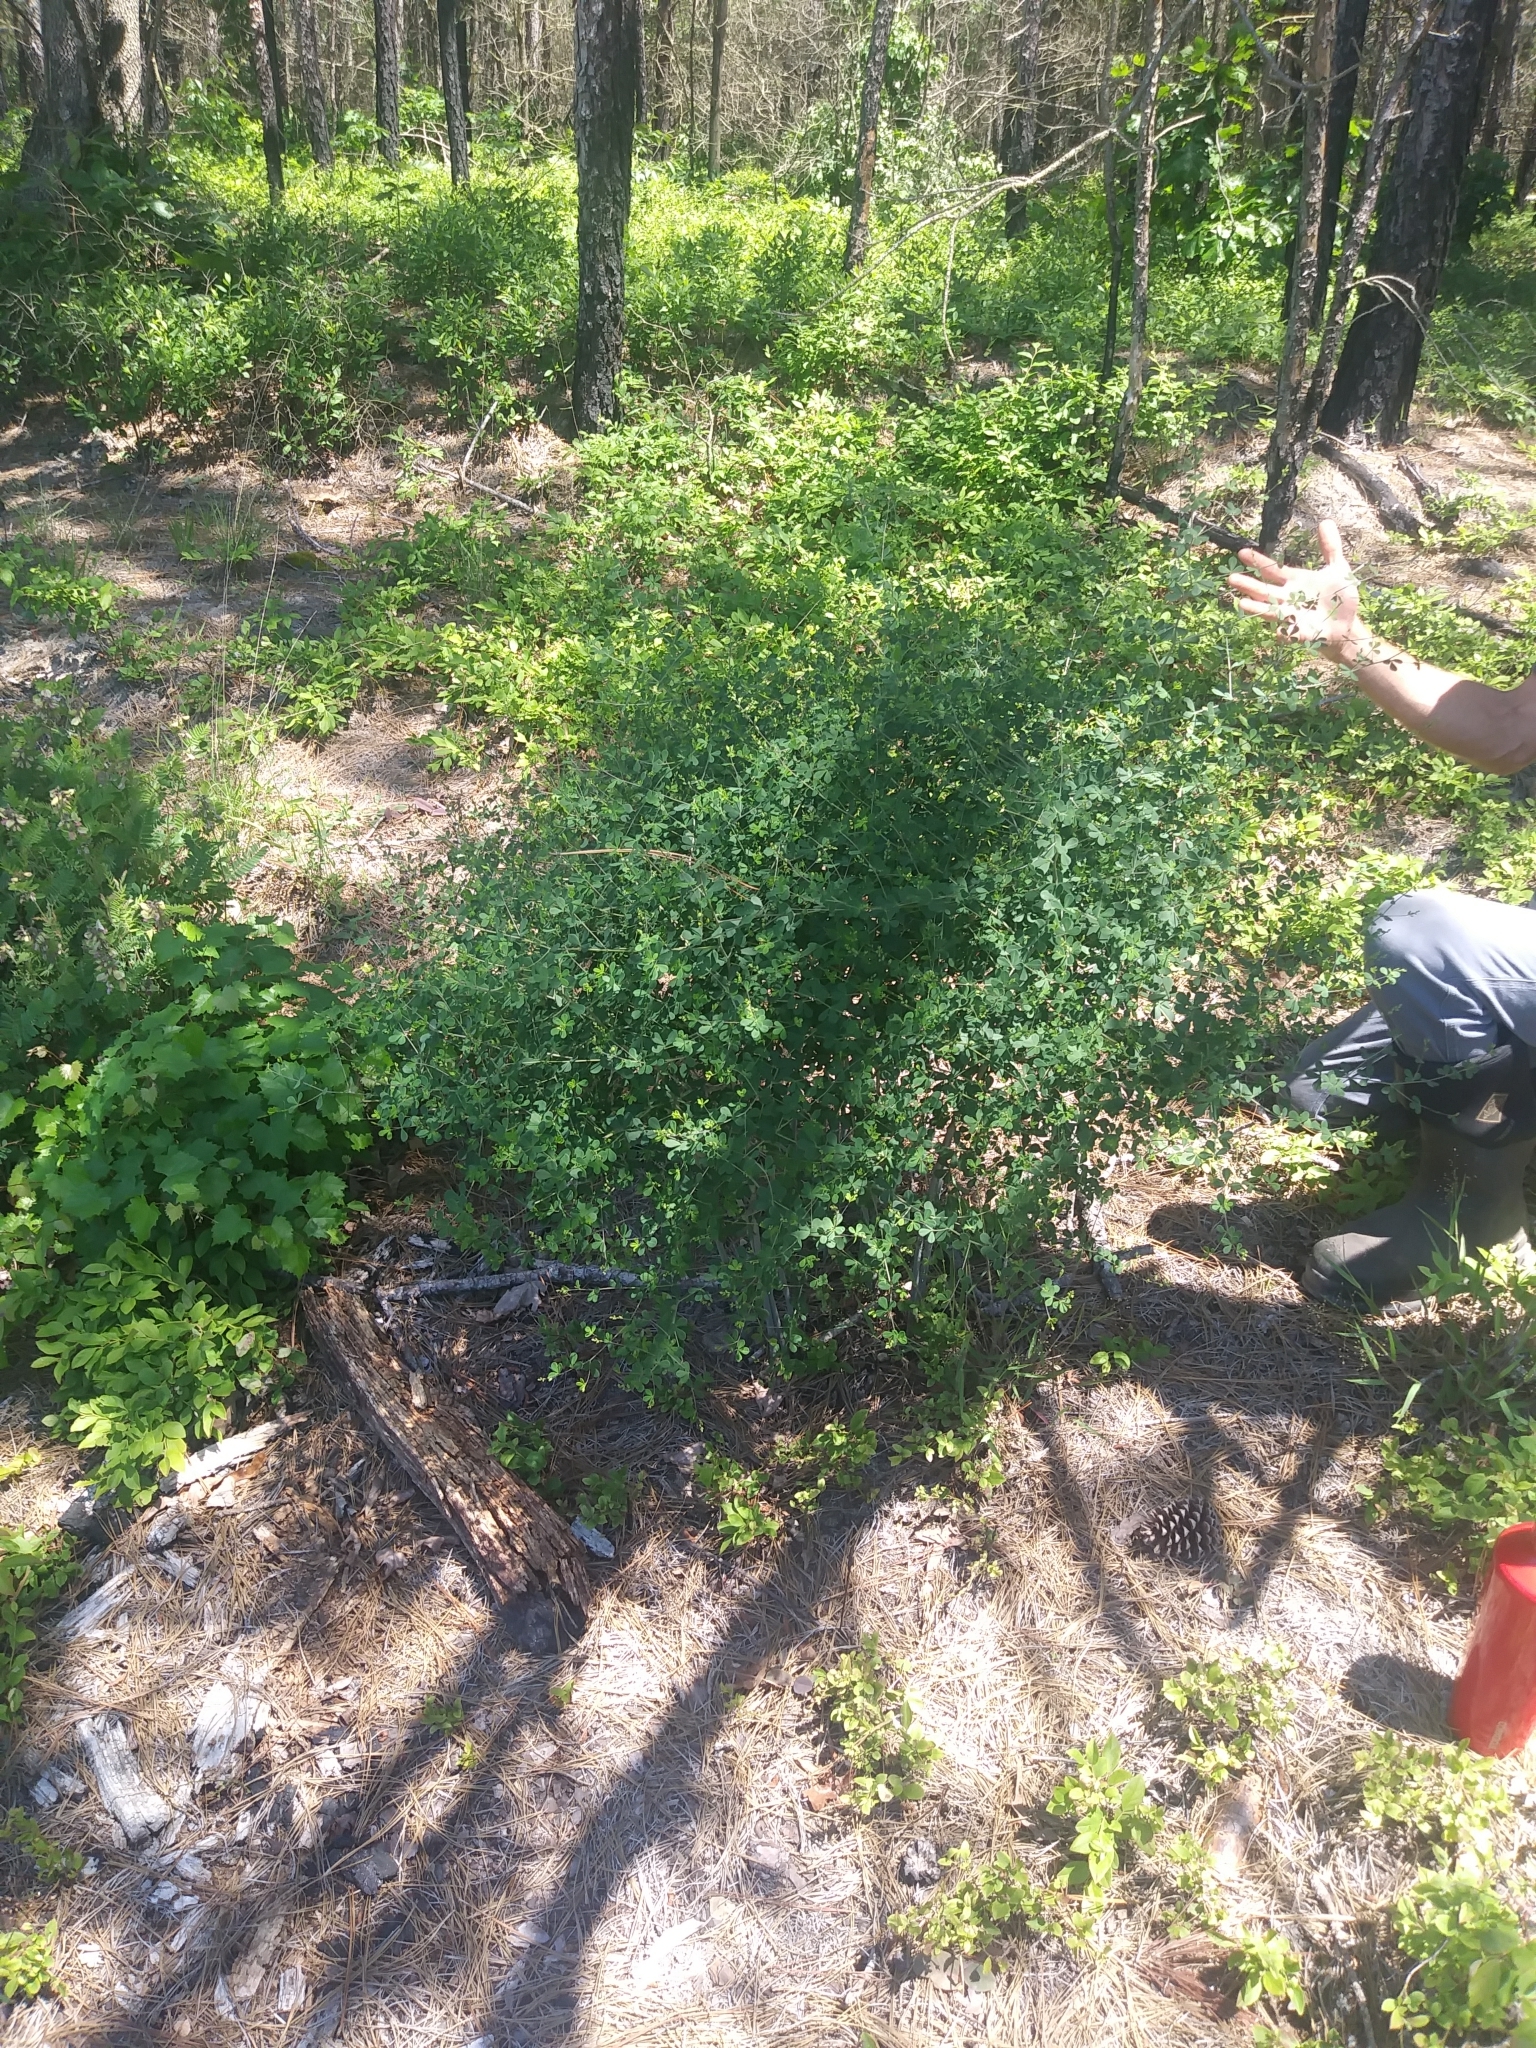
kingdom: Plantae
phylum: Tracheophyta
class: Magnoliopsida
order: Fabales
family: Fabaceae
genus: Baptisia
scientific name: Baptisia tinctoria
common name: Wild indigo
